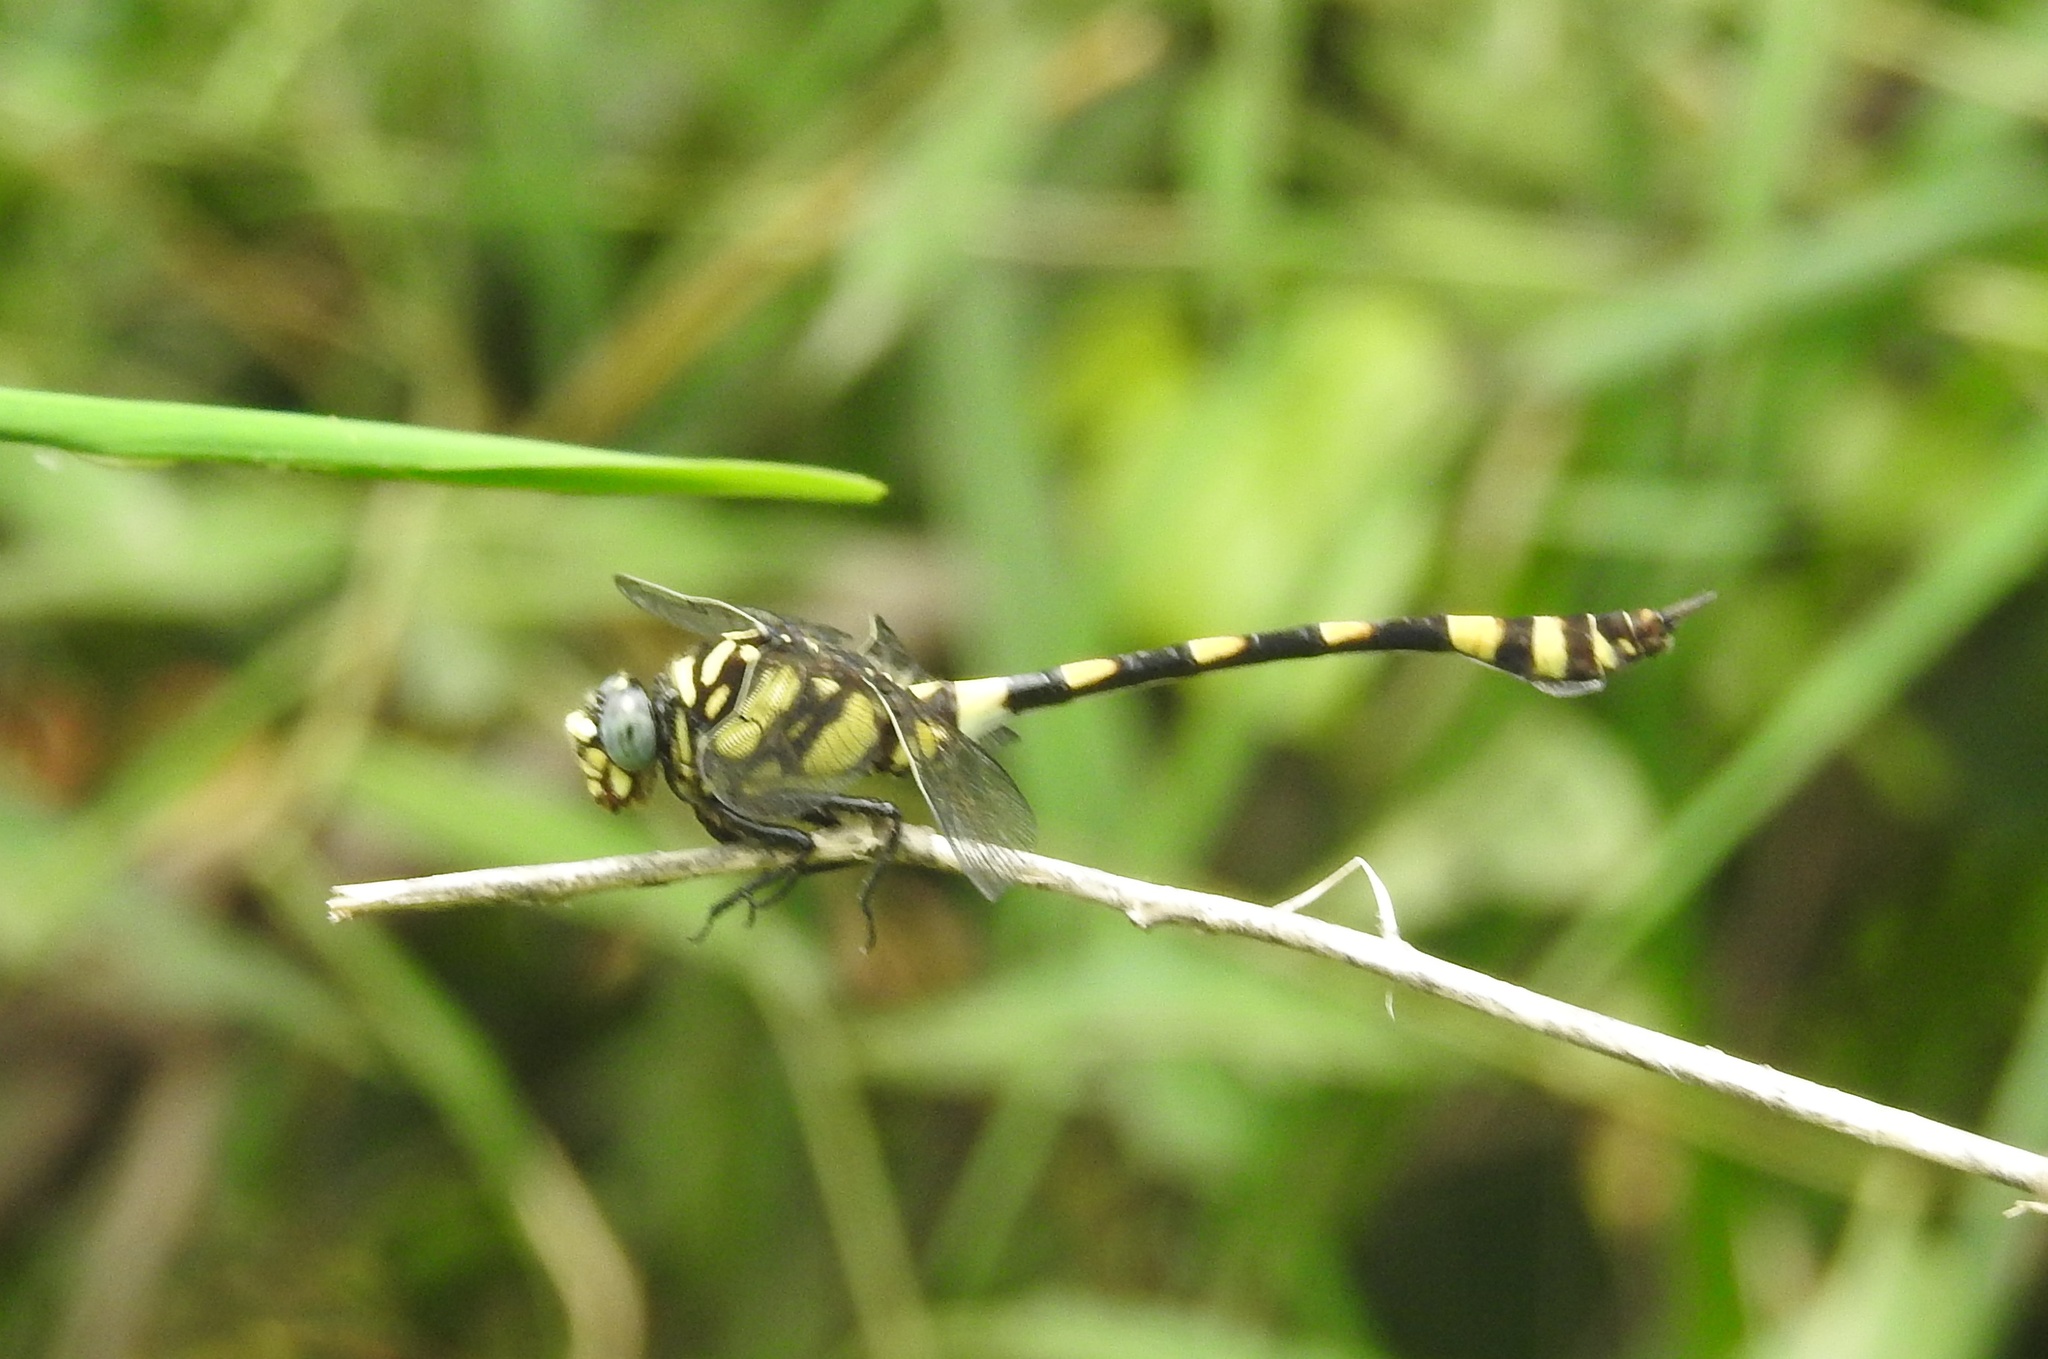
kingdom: Animalia
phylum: Arthropoda
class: Insecta
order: Odonata
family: Gomphidae
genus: Ictinogomphus
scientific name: Ictinogomphus rapax
